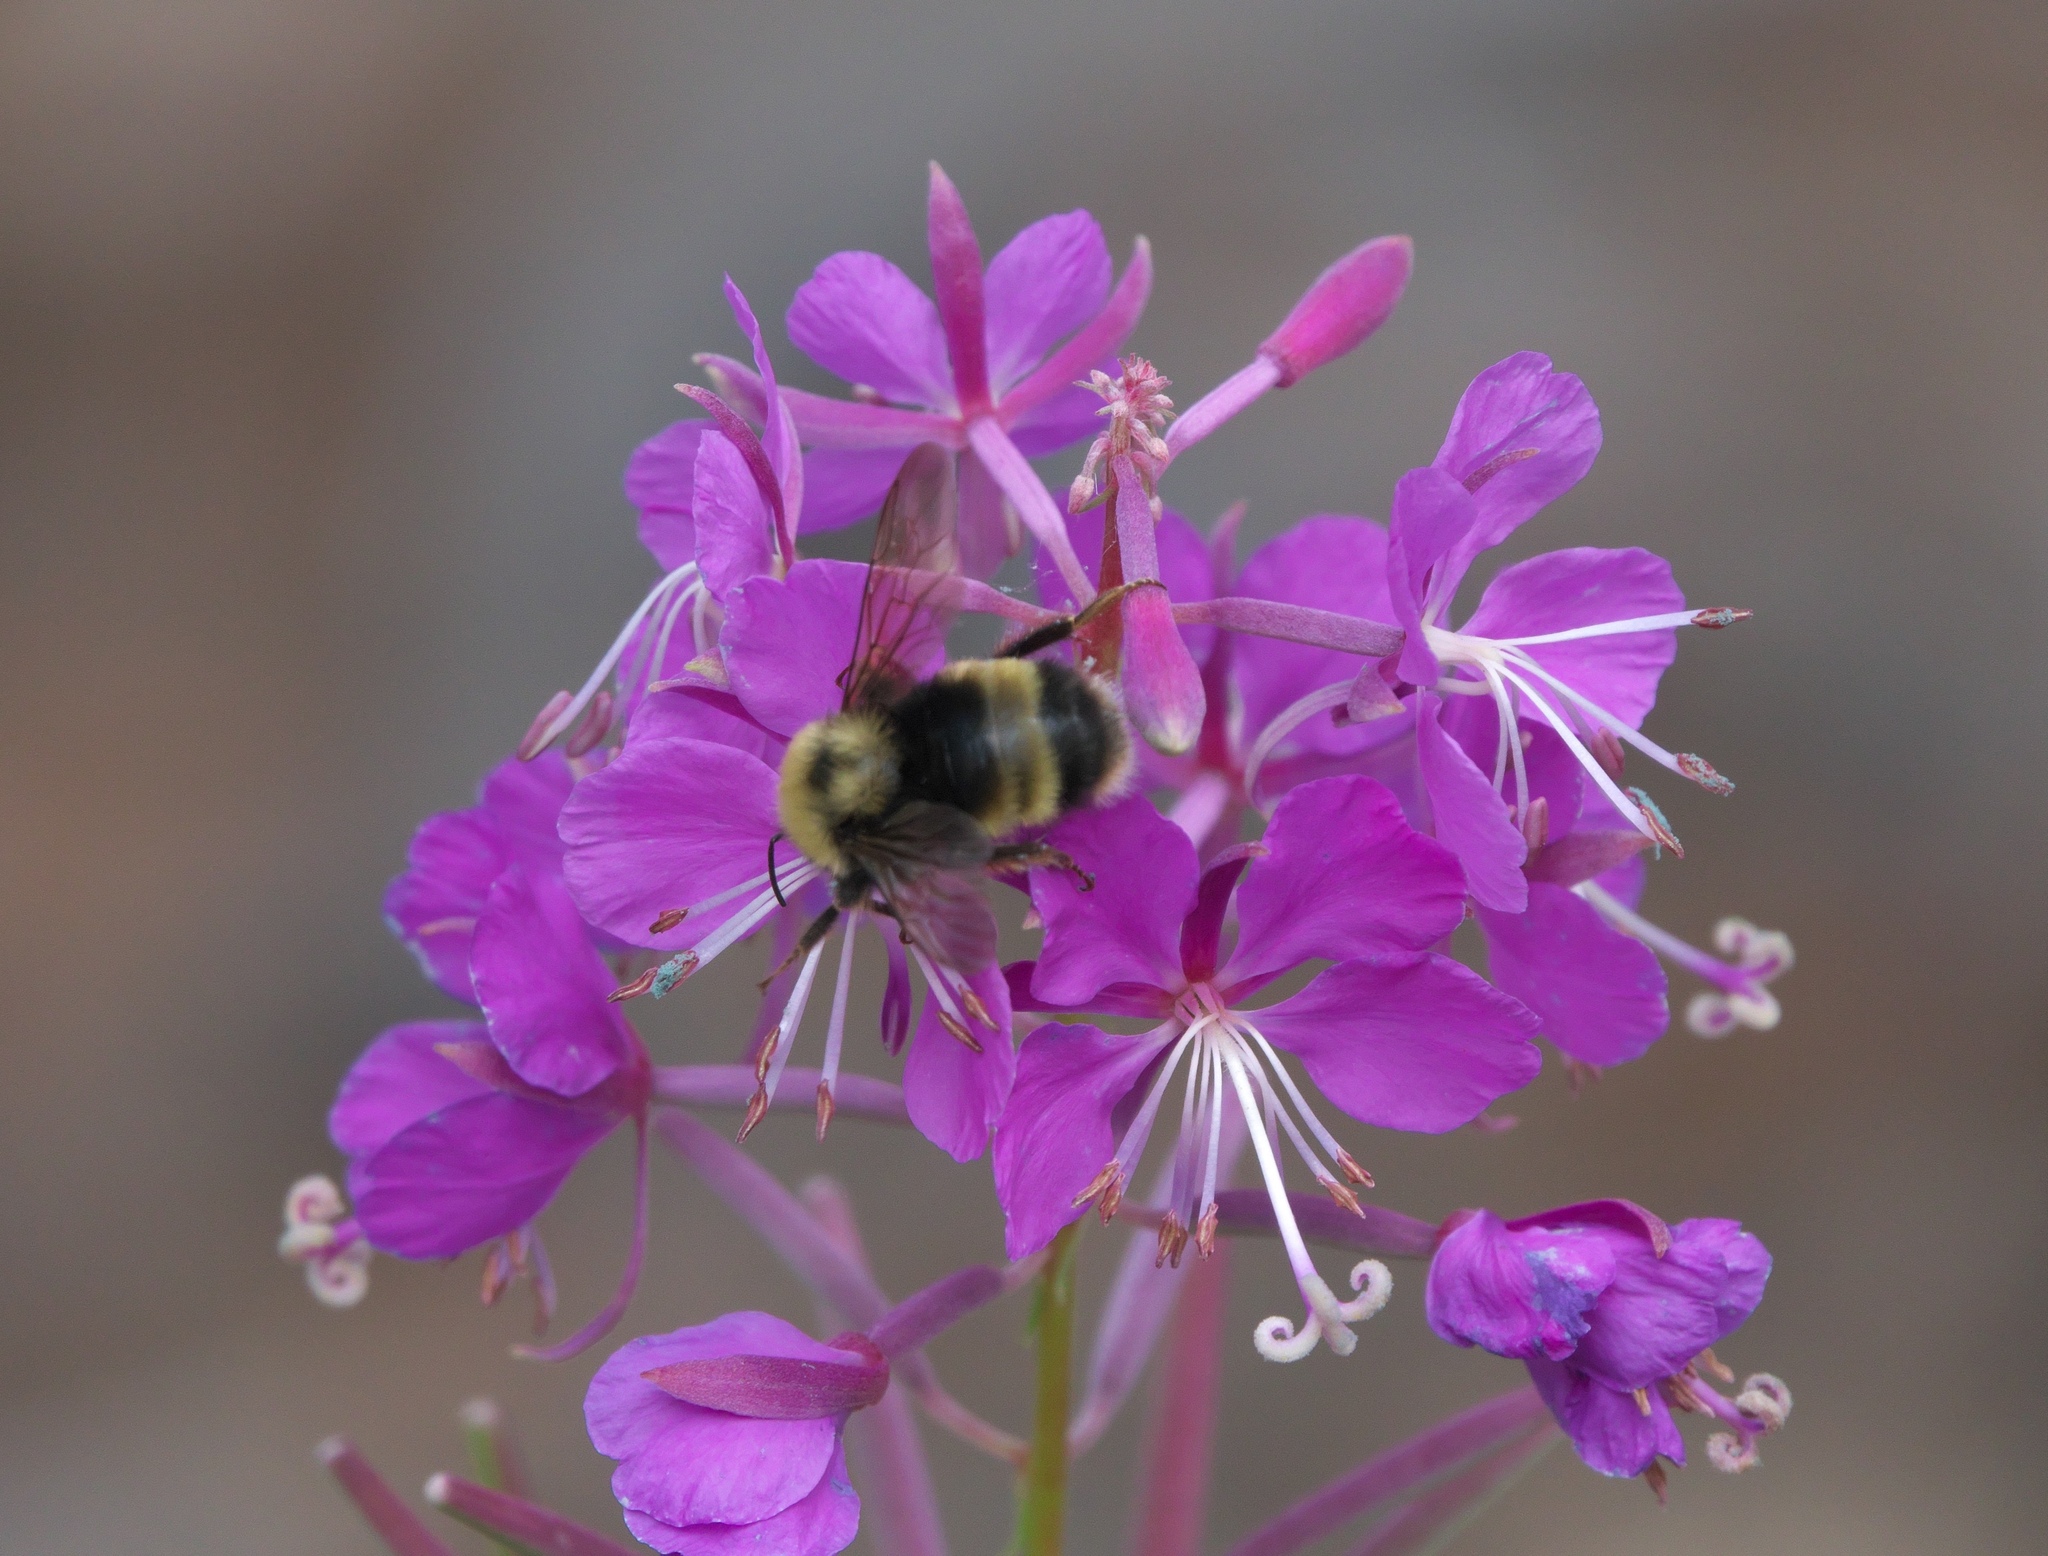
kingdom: Plantae
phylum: Tracheophyta
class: Magnoliopsida
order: Myrtales
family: Onagraceae
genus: Chamaenerion
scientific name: Chamaenerion angustifolium
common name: Fireweed
